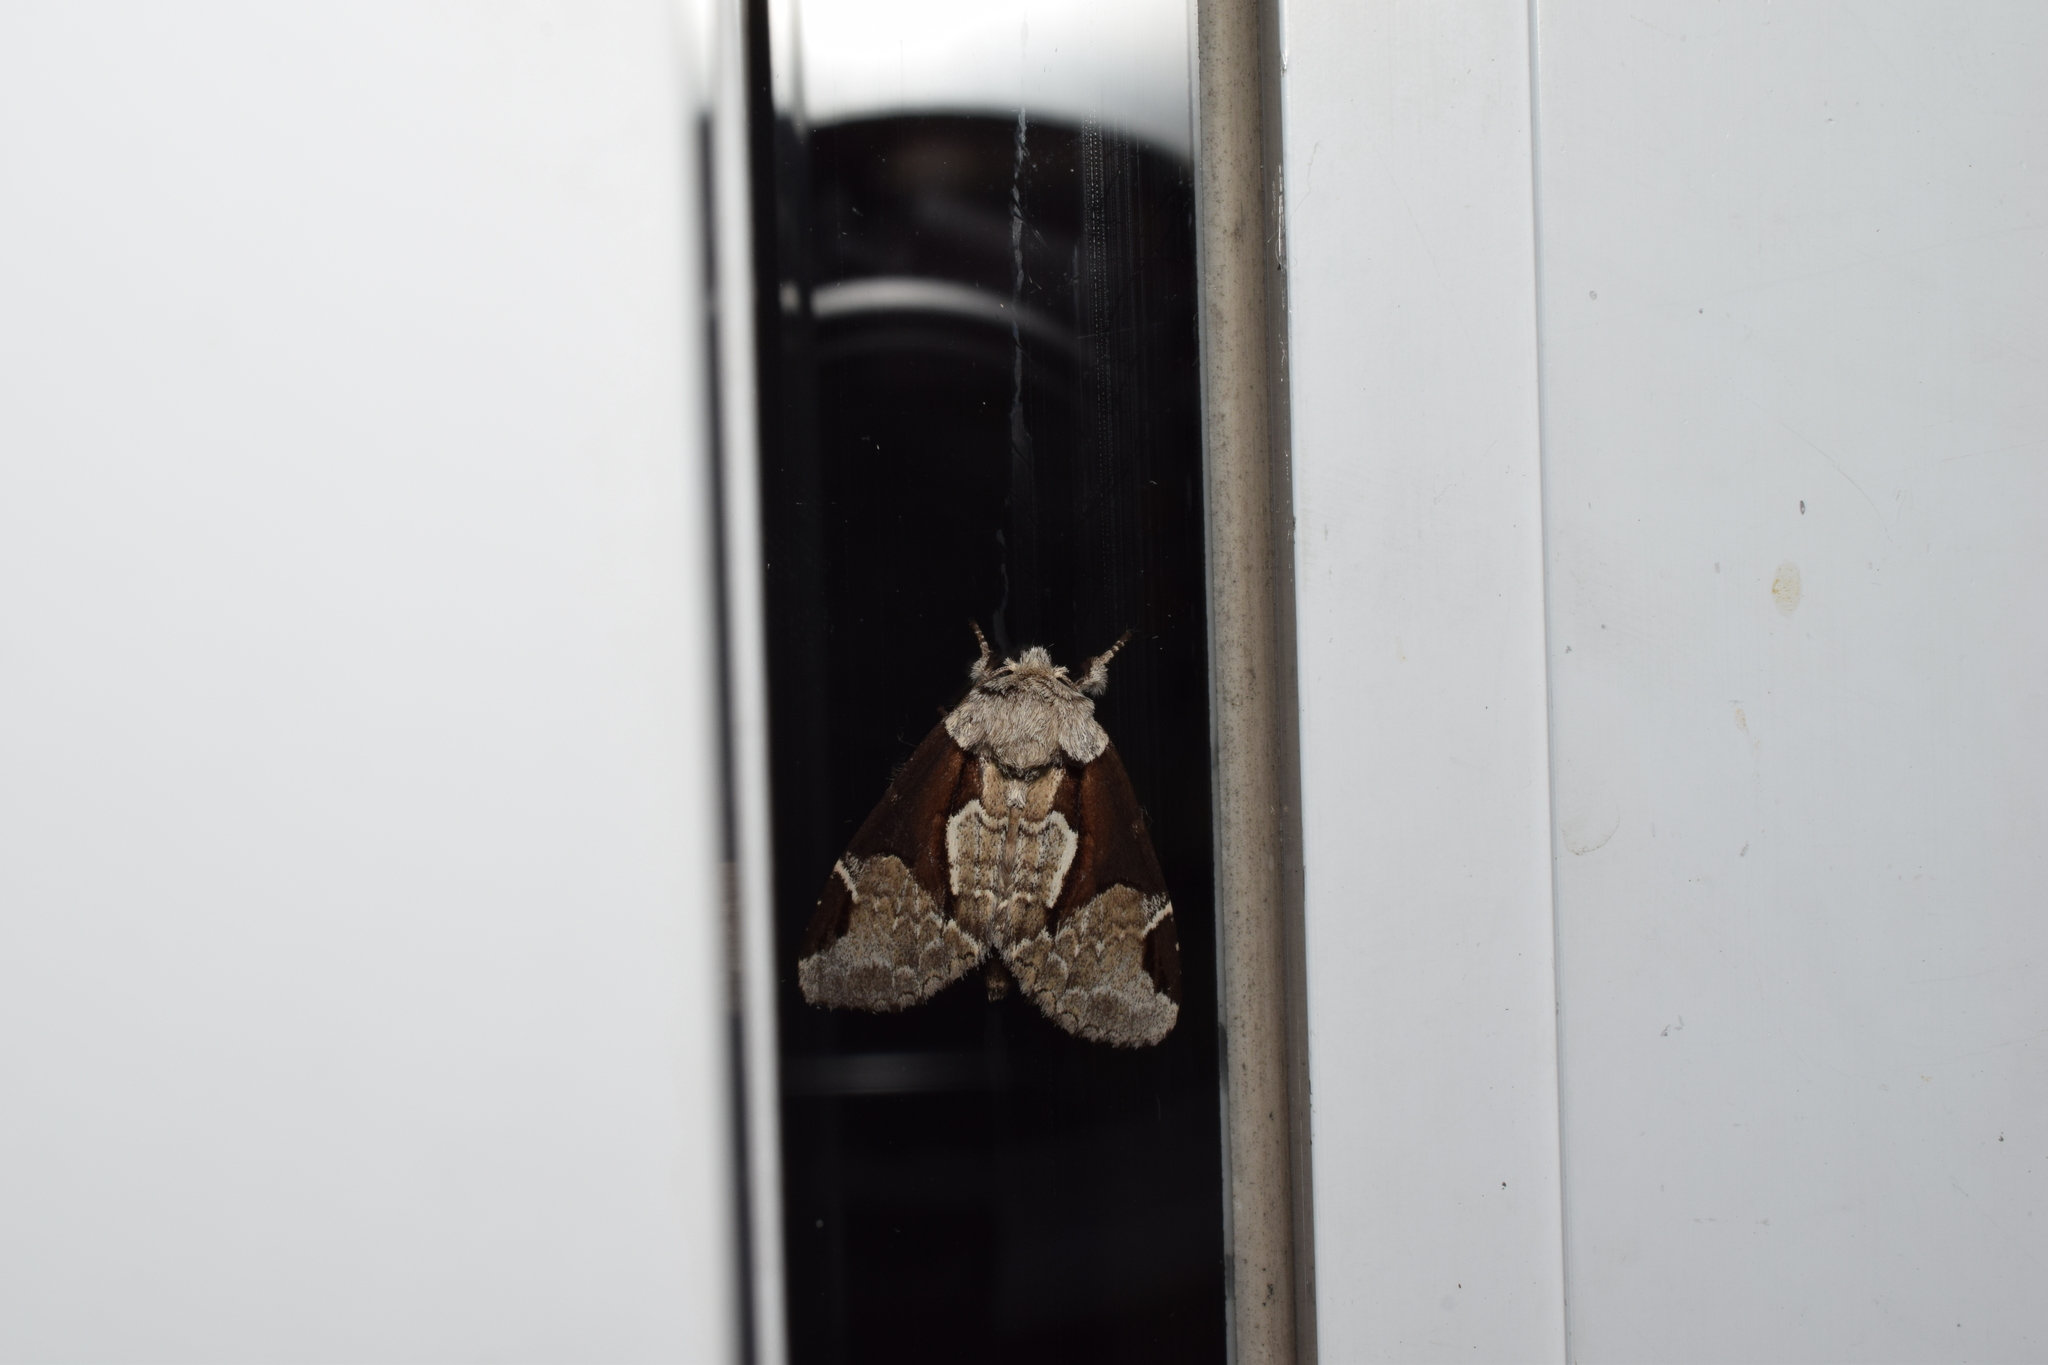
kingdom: Animalia
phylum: Arthropoda
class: Insecta
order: Lepidoptera
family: Notodontidae
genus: Wilemanus
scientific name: Wilemanus bidentatus
